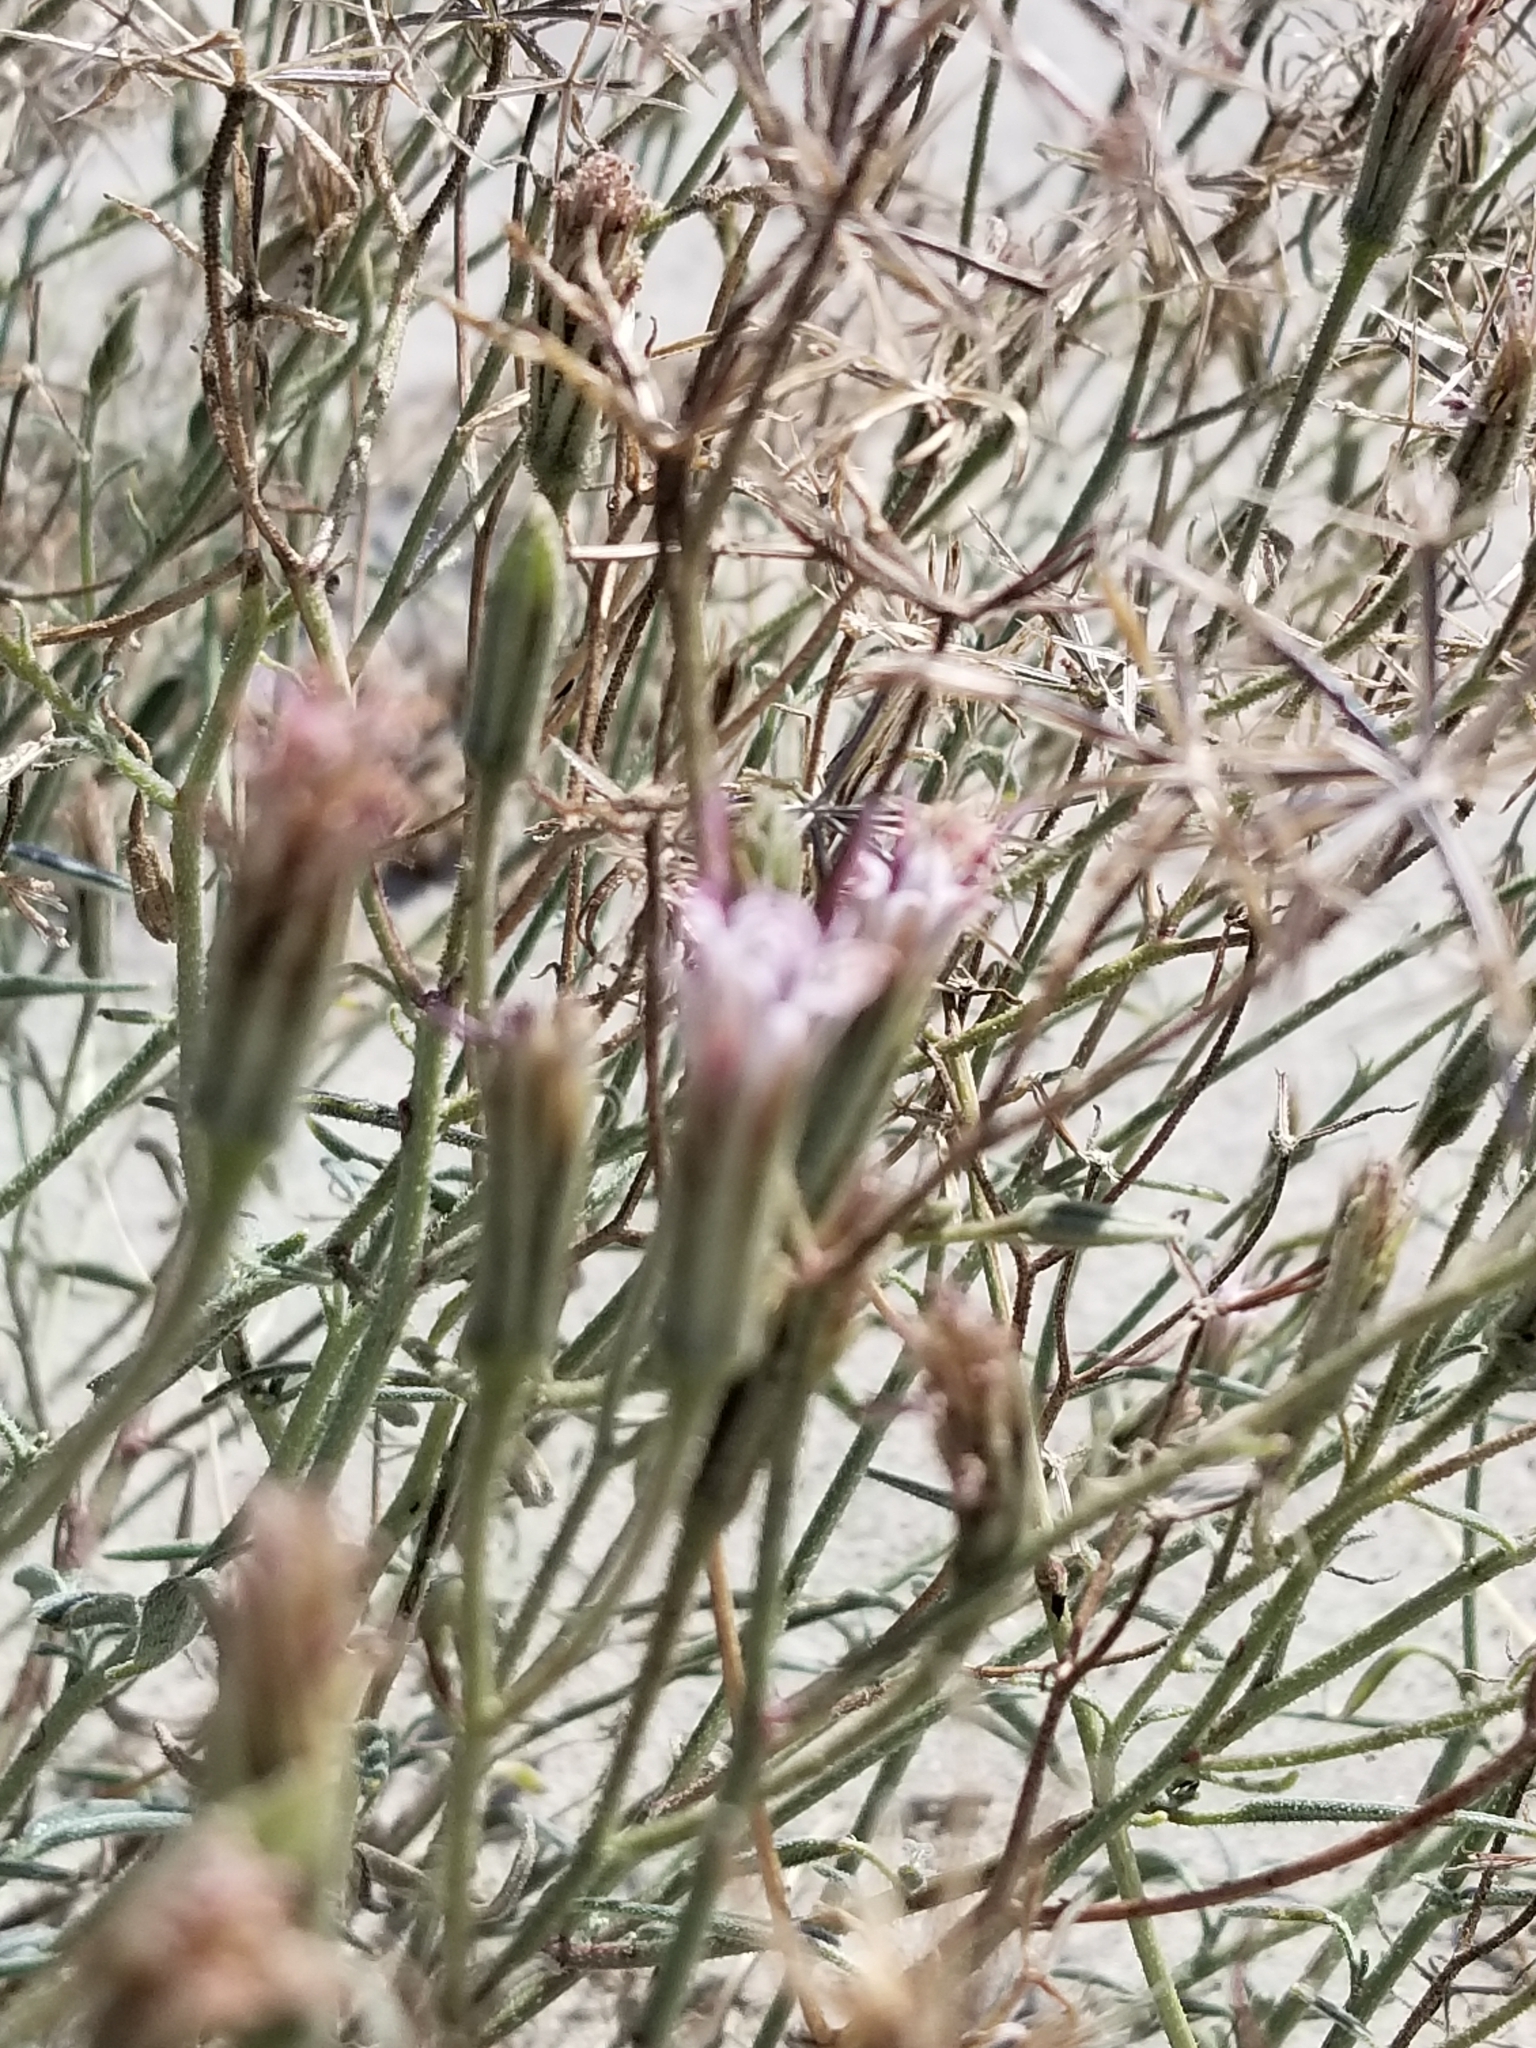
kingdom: Plantae
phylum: Tracheophyta
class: Magnoliopsida
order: Asterales
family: Asteraceae
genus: Palafoxia
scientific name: Palafoxia arida
